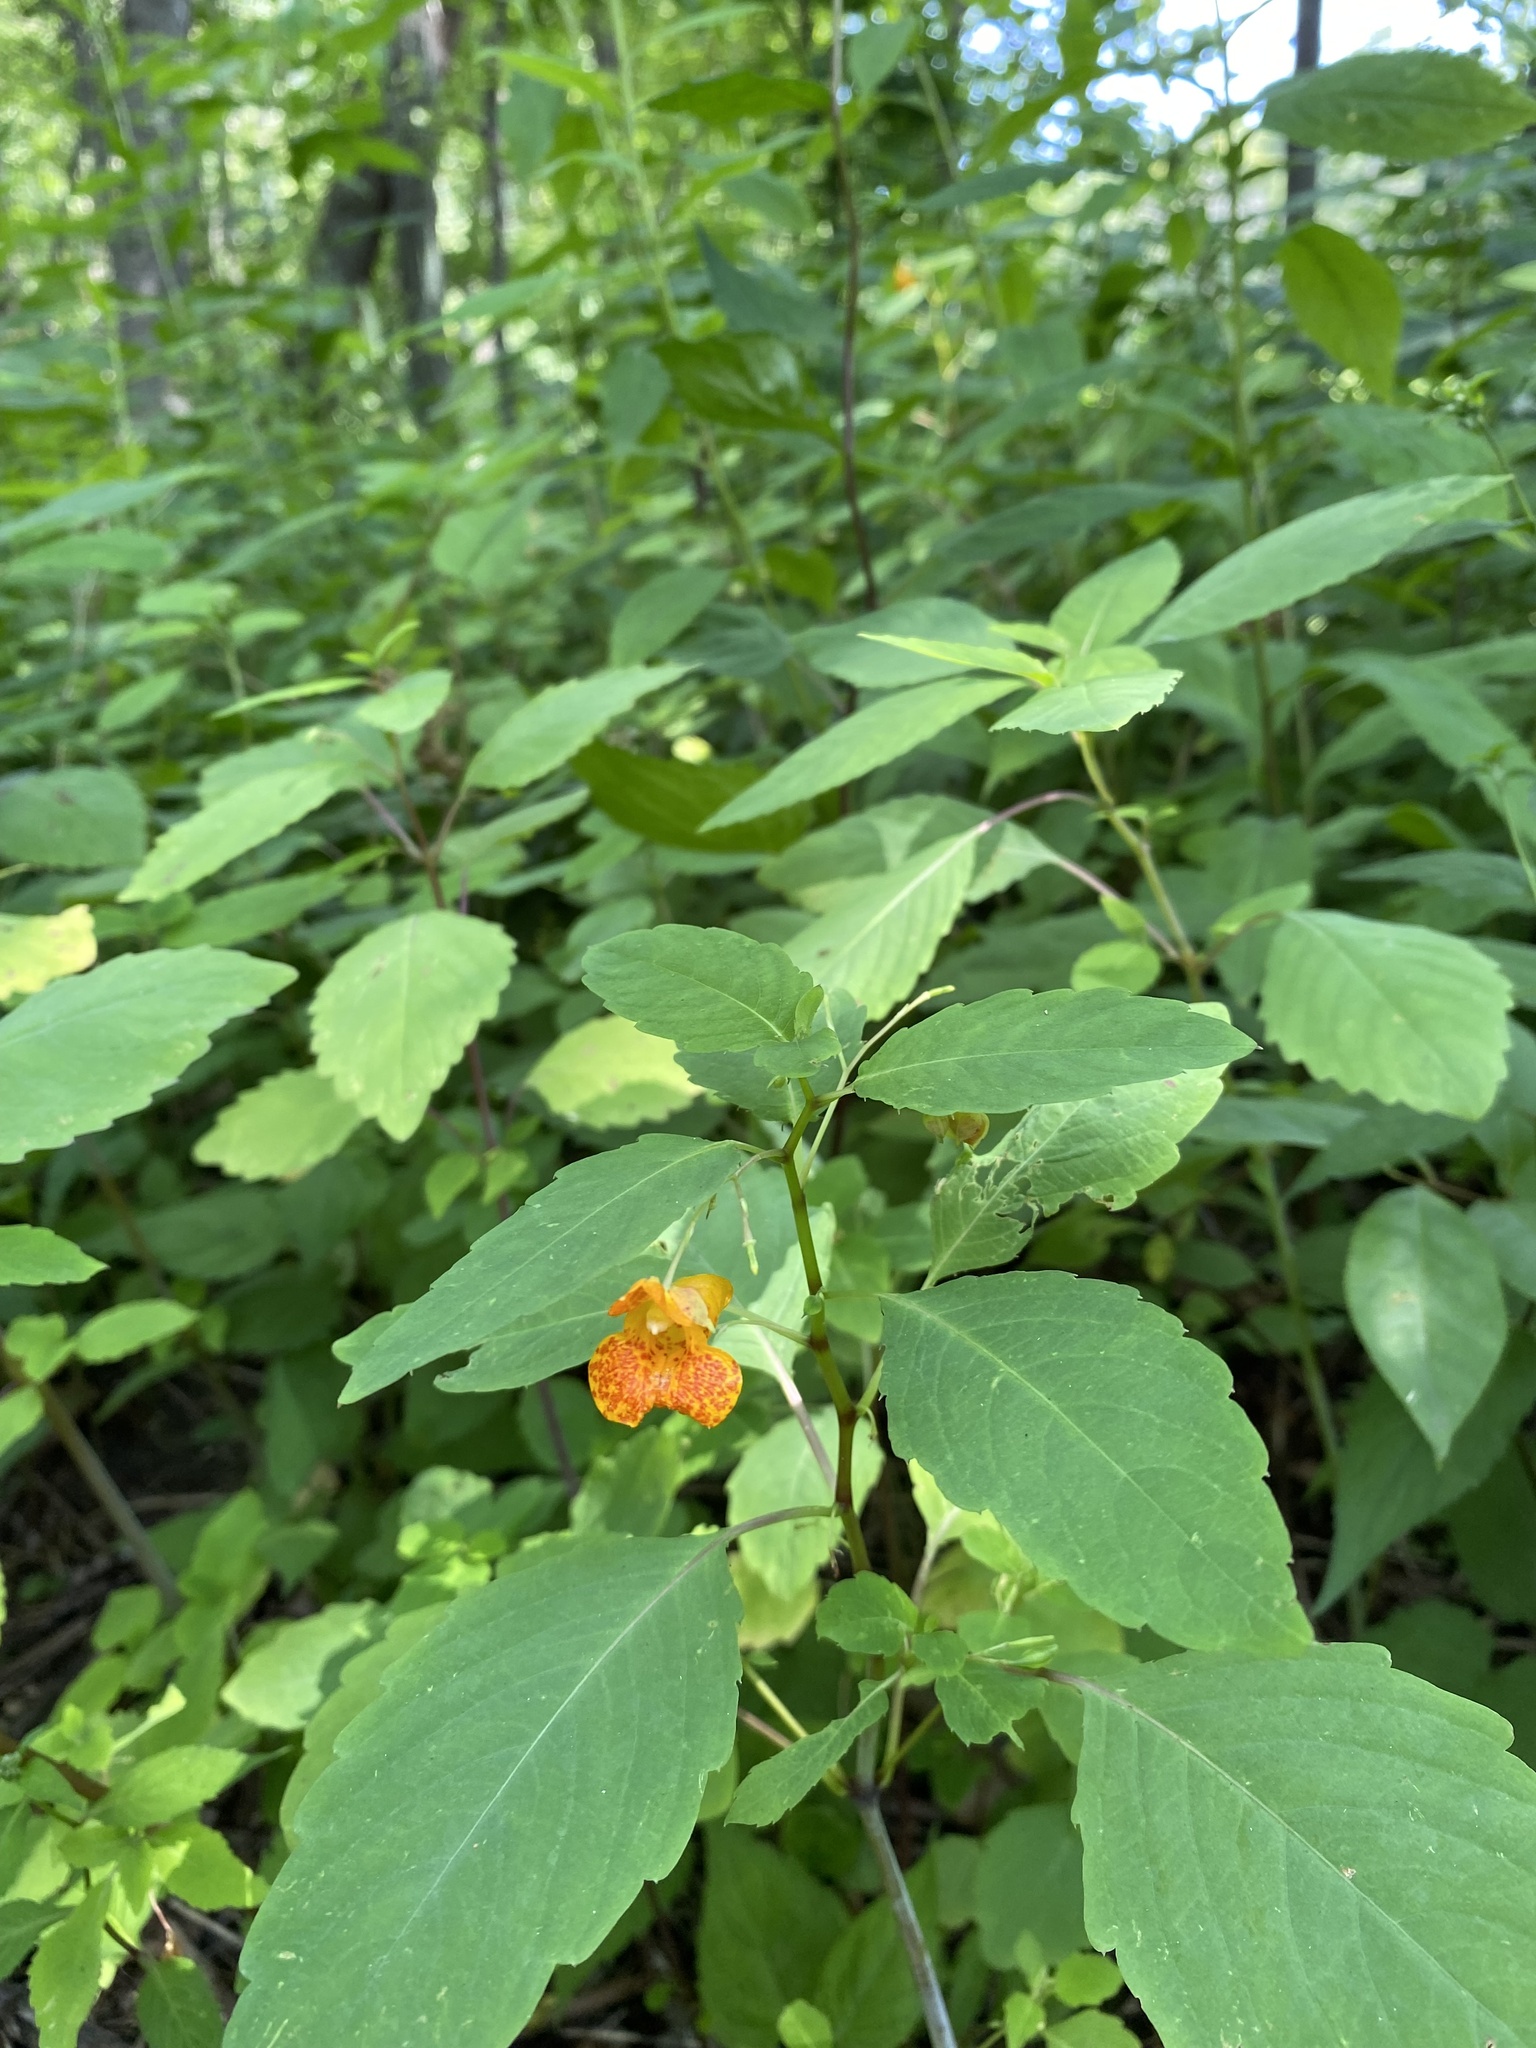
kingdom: Plantae
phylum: Tracheophyta
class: Magnoliopsida
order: Ericales
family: Balsaminaceae
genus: Impatiens
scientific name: Impatiens capensis
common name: Orange balsam
